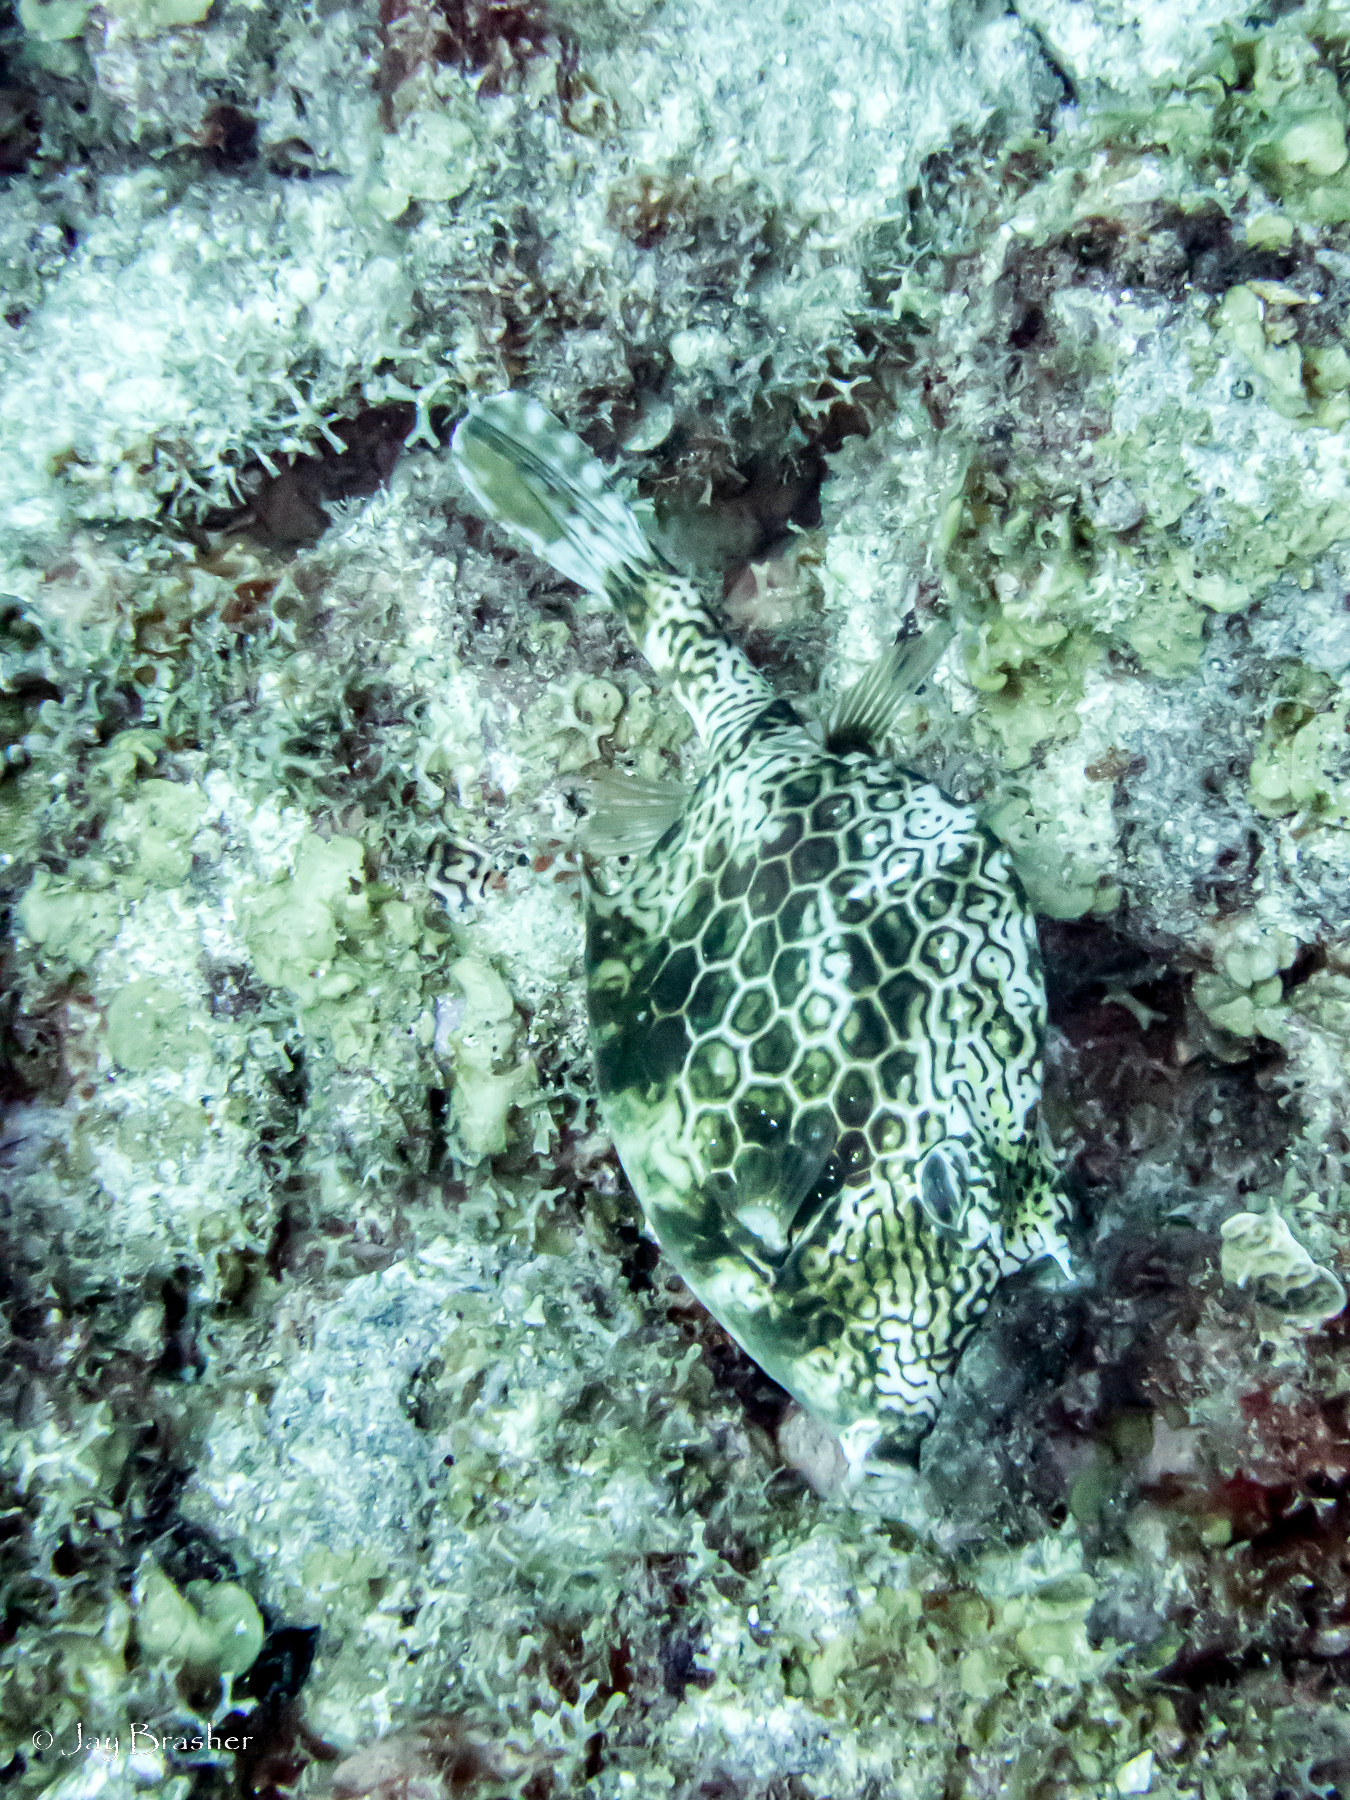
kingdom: Animalia
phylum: Chordata
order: Tetraodontiformes
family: Ostraciidae
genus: Acanthostracion
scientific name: Acanthostracion polygonius
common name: Honeycomb cowfish
